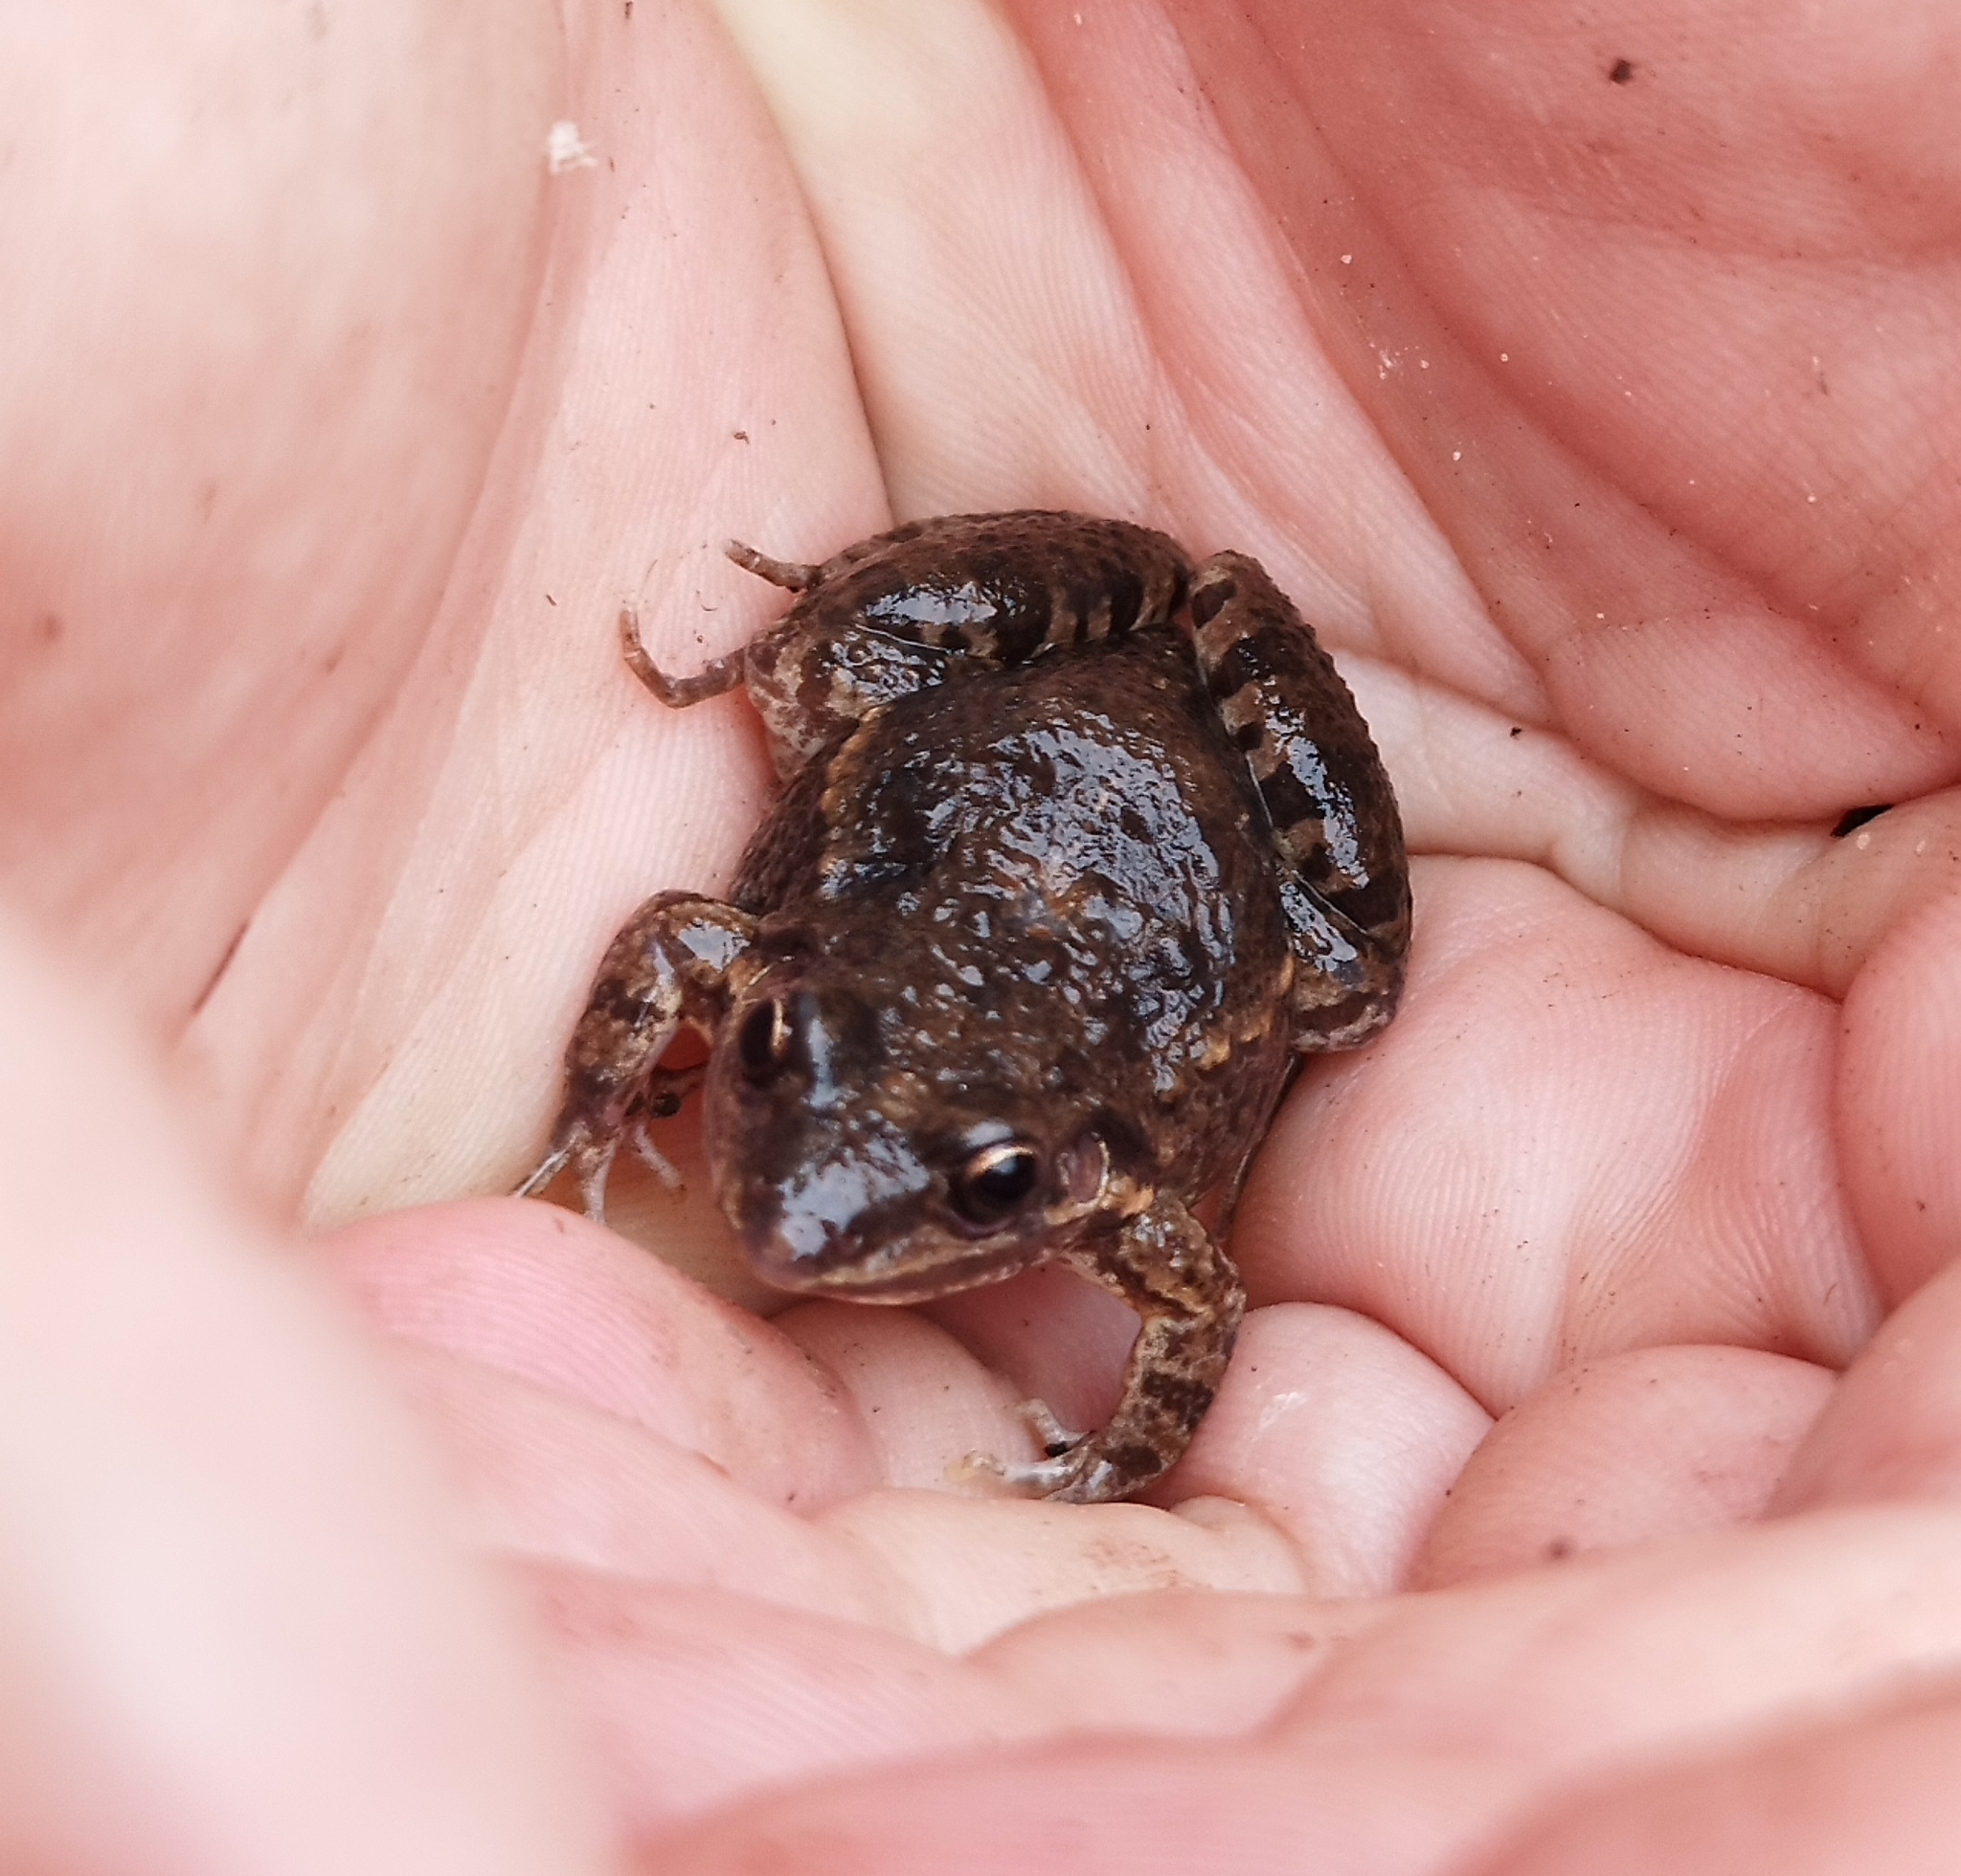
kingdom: Animalia
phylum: Chordata
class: Amphibia
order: Anura
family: Leptodactylidae
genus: Leptodactylus
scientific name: Leptodactylus latinasus
